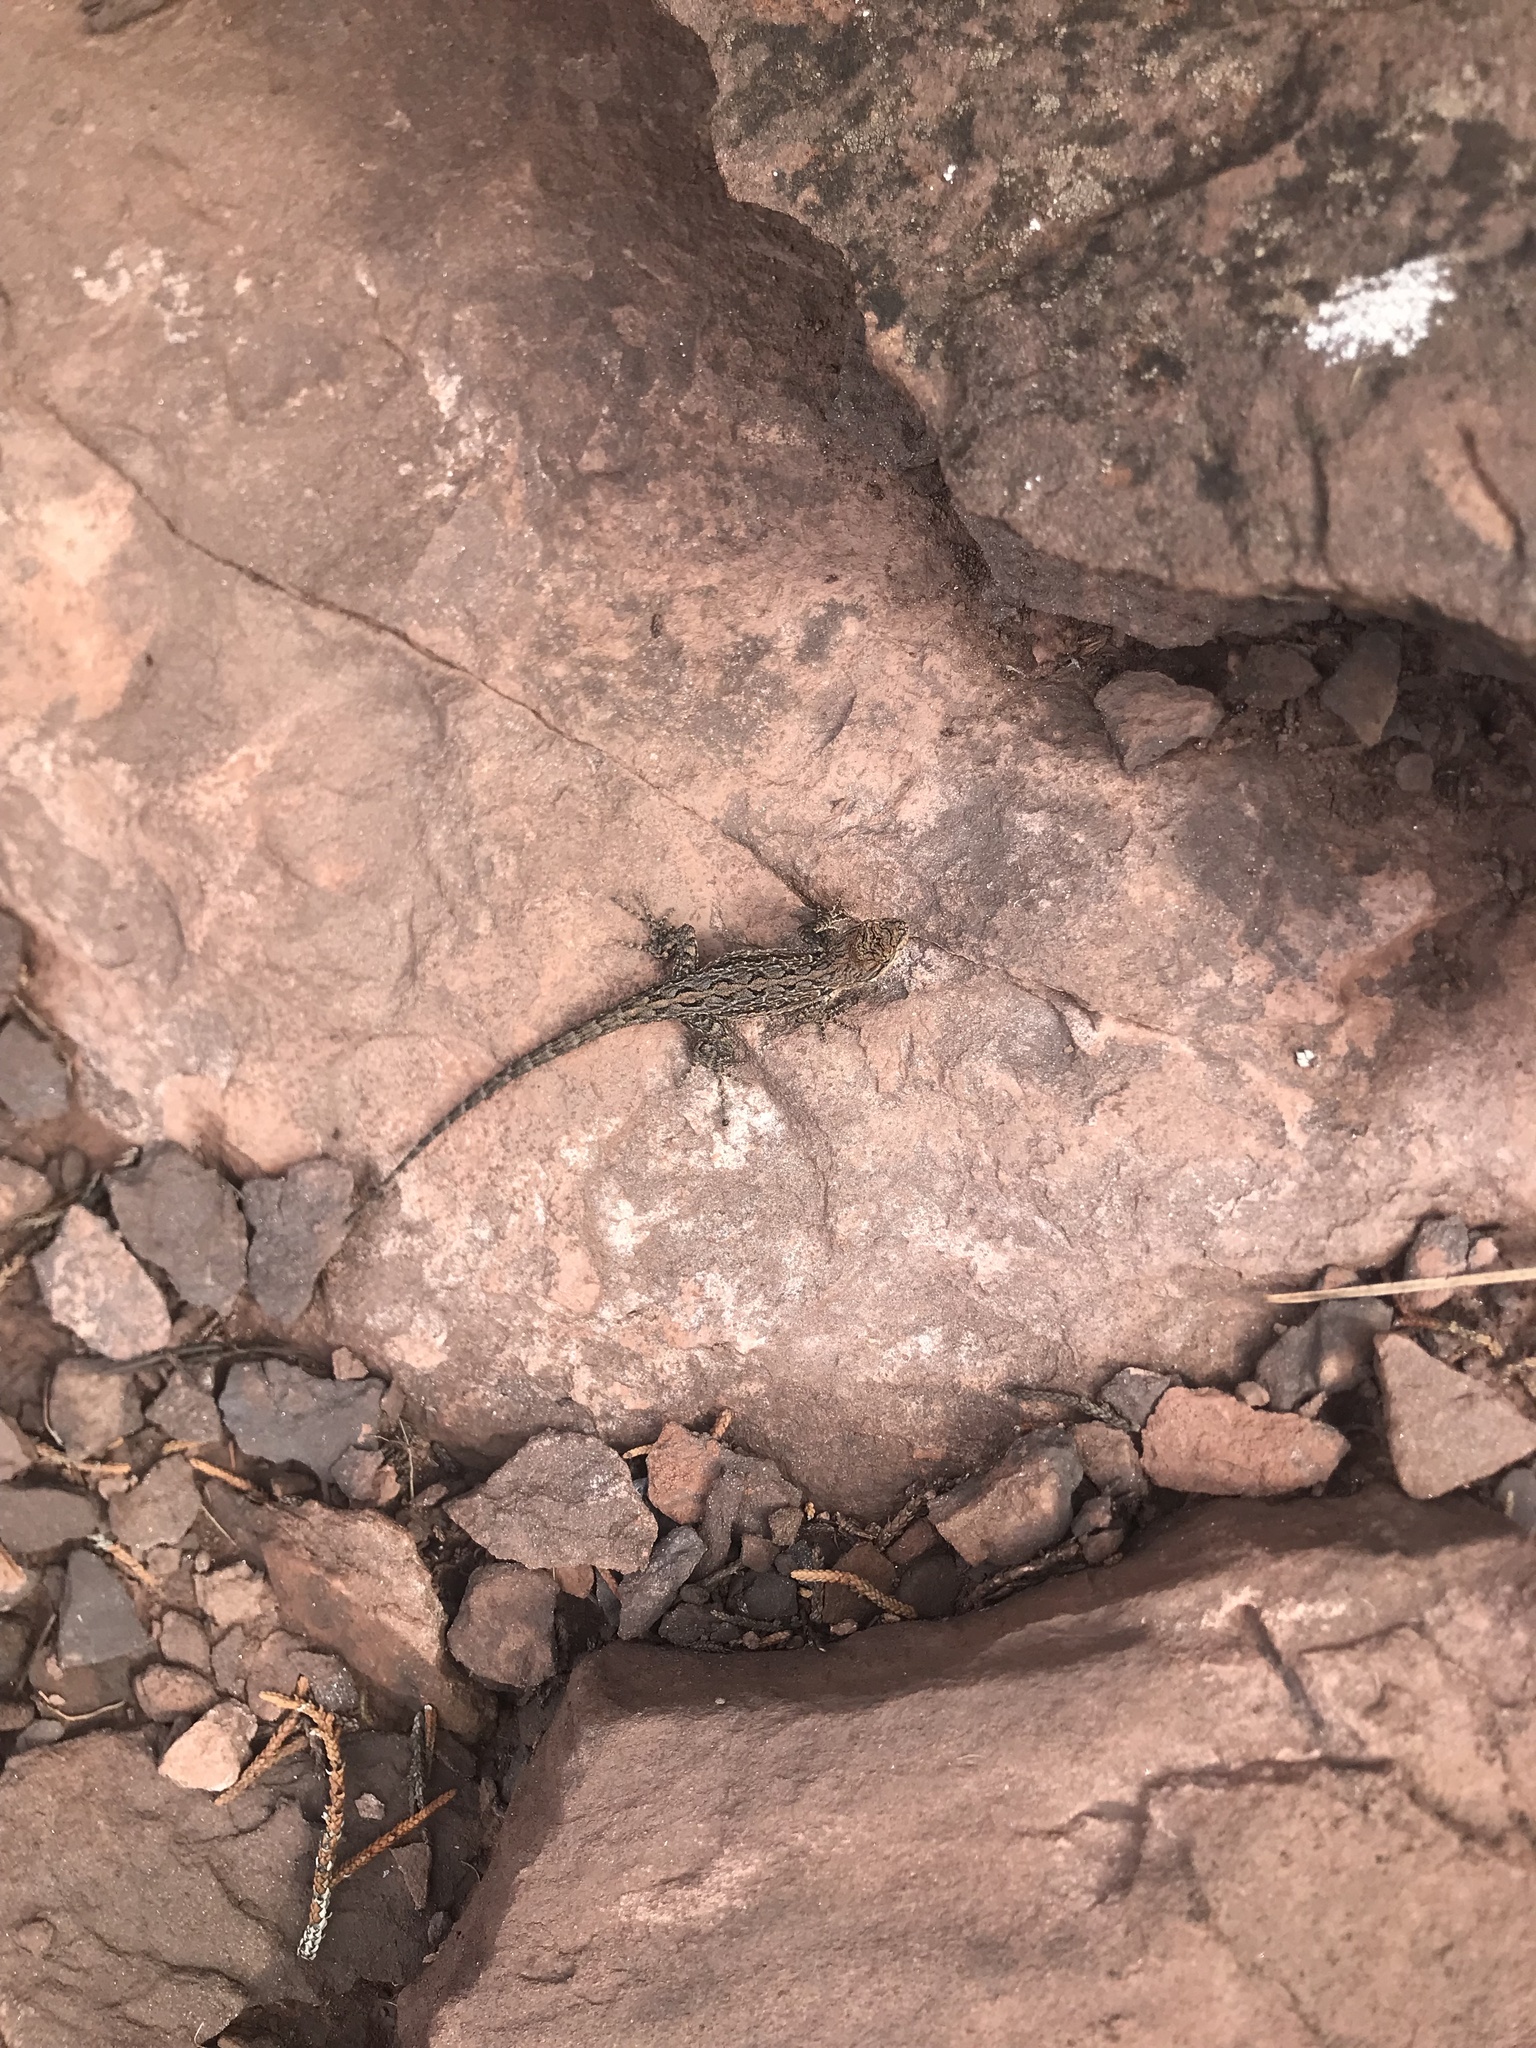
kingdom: Animalia
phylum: Chordata
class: Squamata
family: Phrynosomatidae
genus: Urosaurus
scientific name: Urosaurus ornatus
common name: Ornate tree lizard
